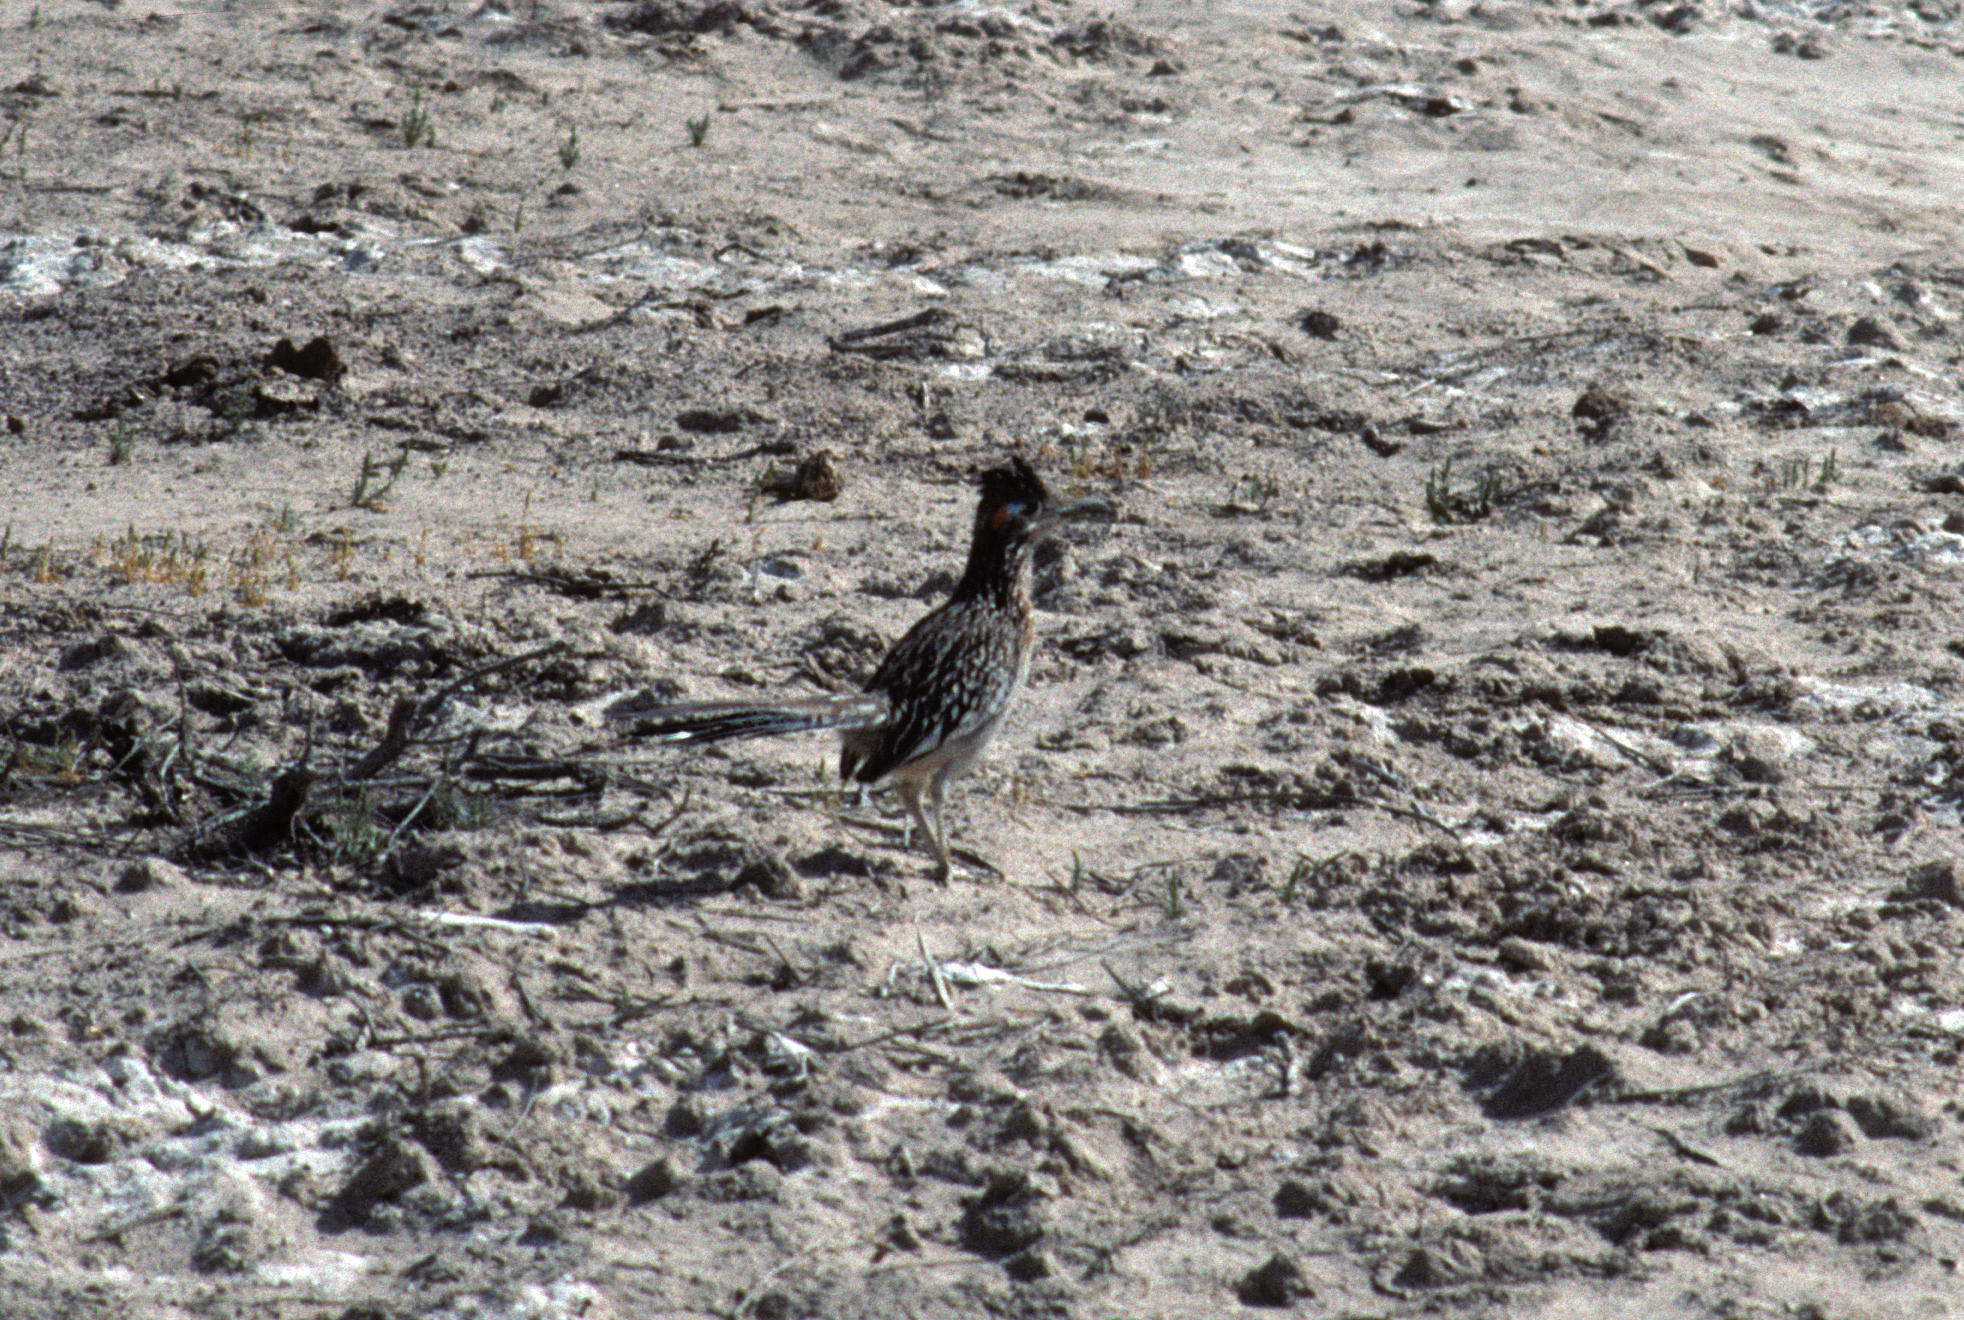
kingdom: Animalia
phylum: Chordata
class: Aves
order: Cuculiformes
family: Cuculidae
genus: Geococcyx
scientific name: Geococcyx californianus
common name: Greater roadrunner
